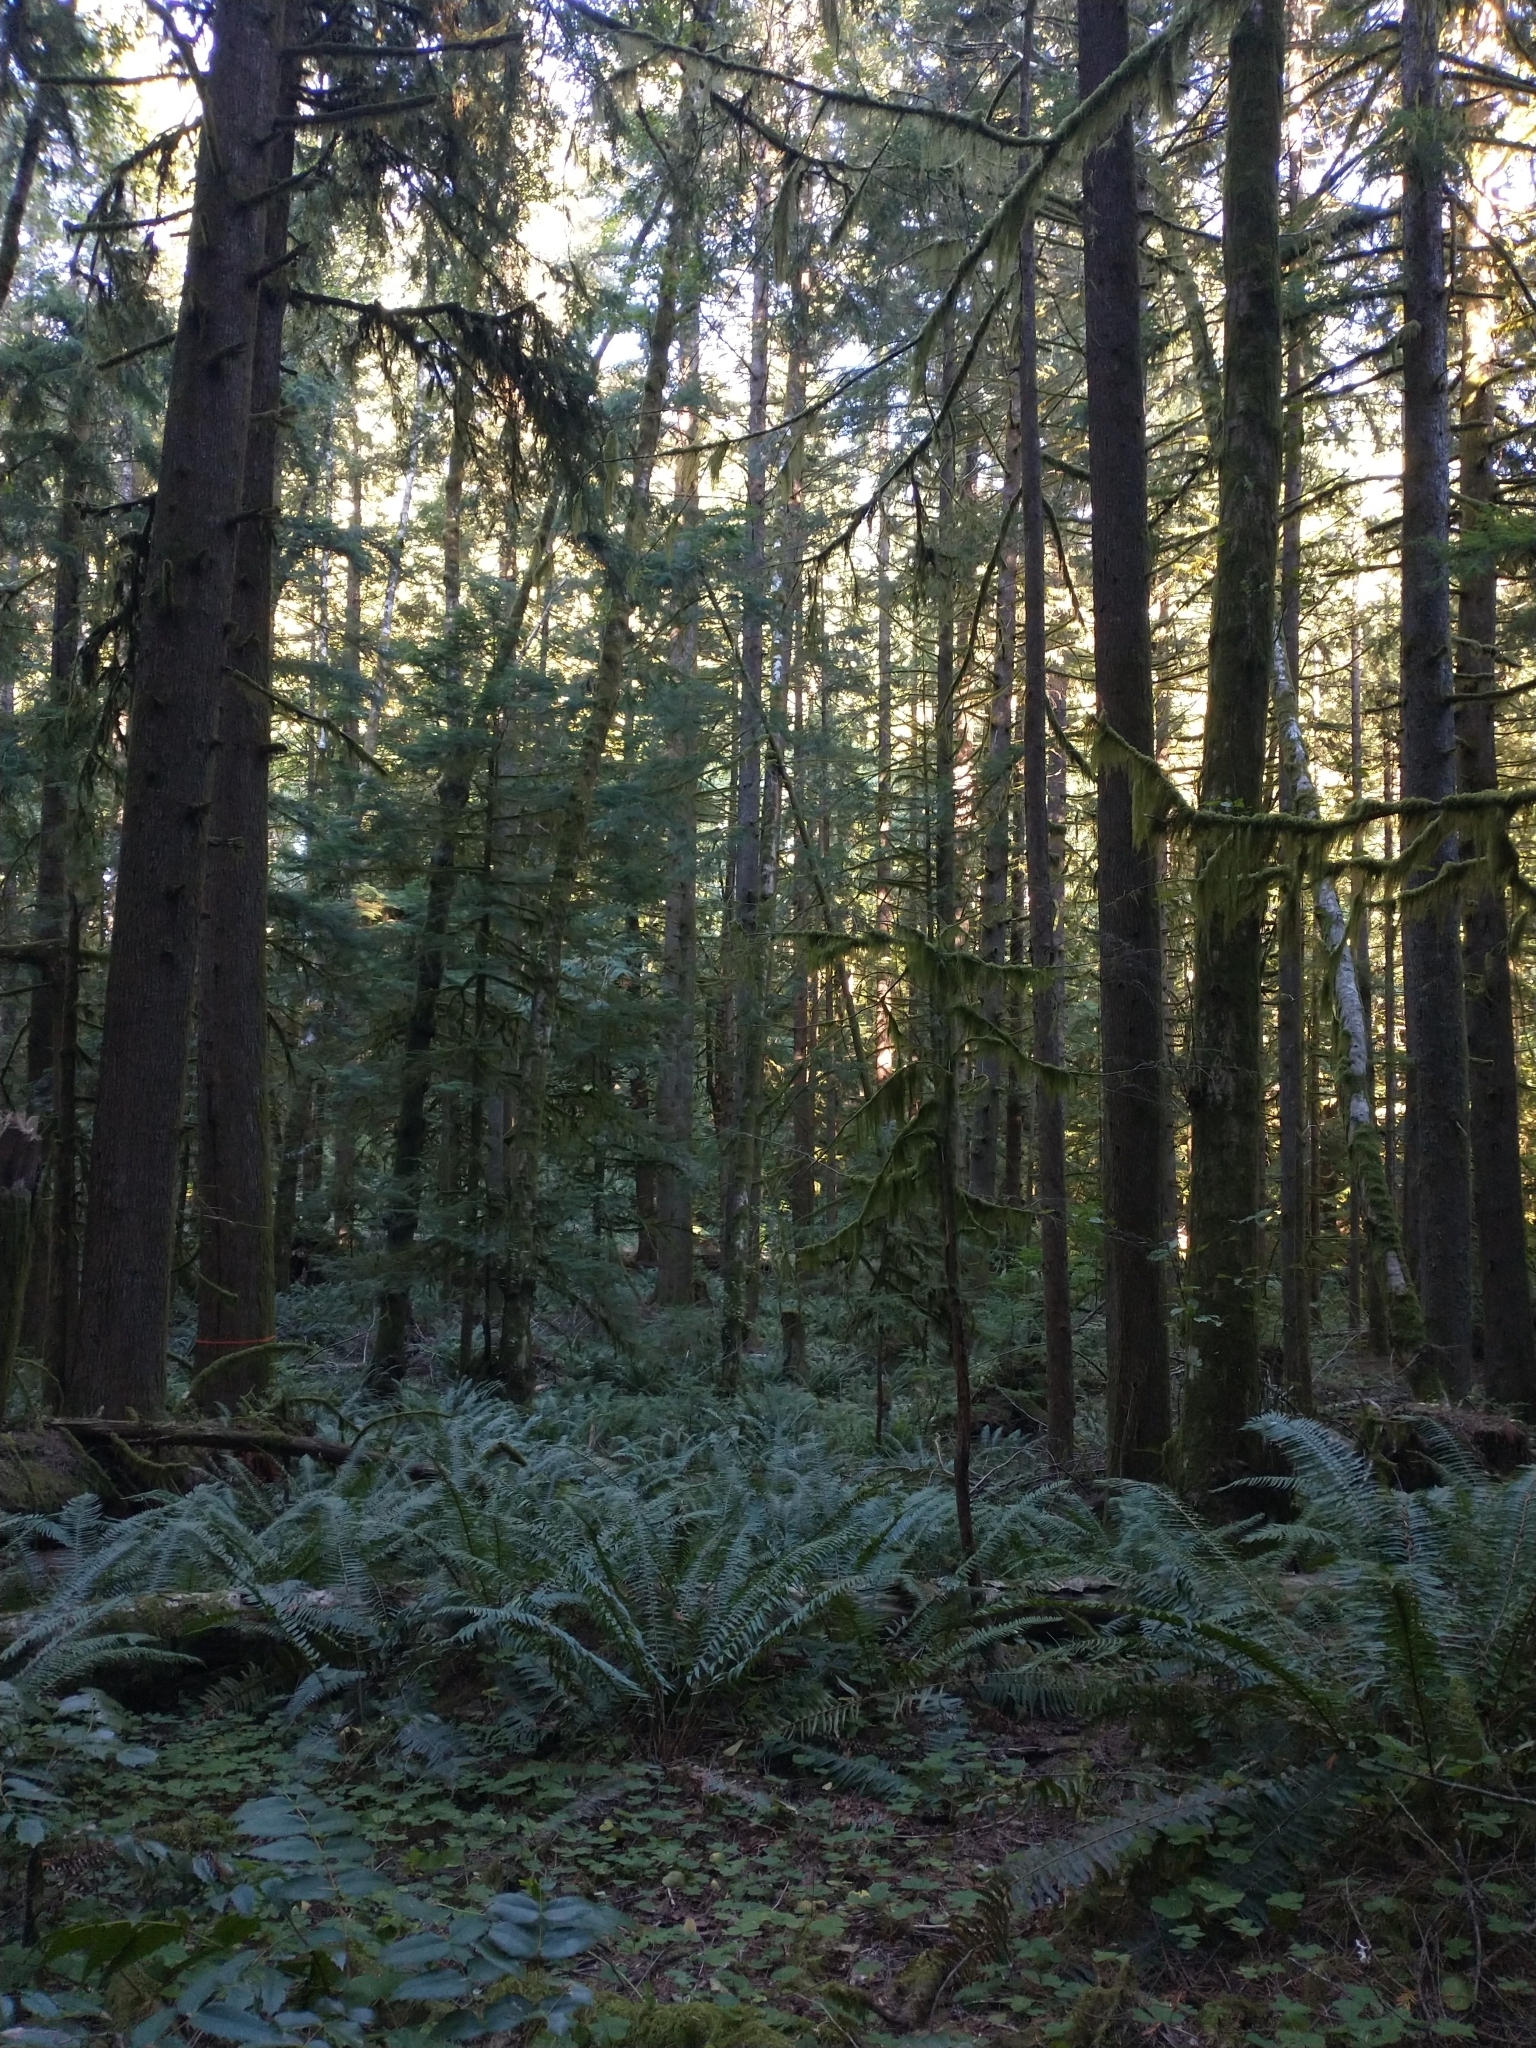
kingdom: Plantae
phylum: Tracheophyta
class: Polypodiopsida
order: Polypodiales
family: Dryopteridaceae
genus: Polystichum
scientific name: Polystichum munitum
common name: Western sword-fern
